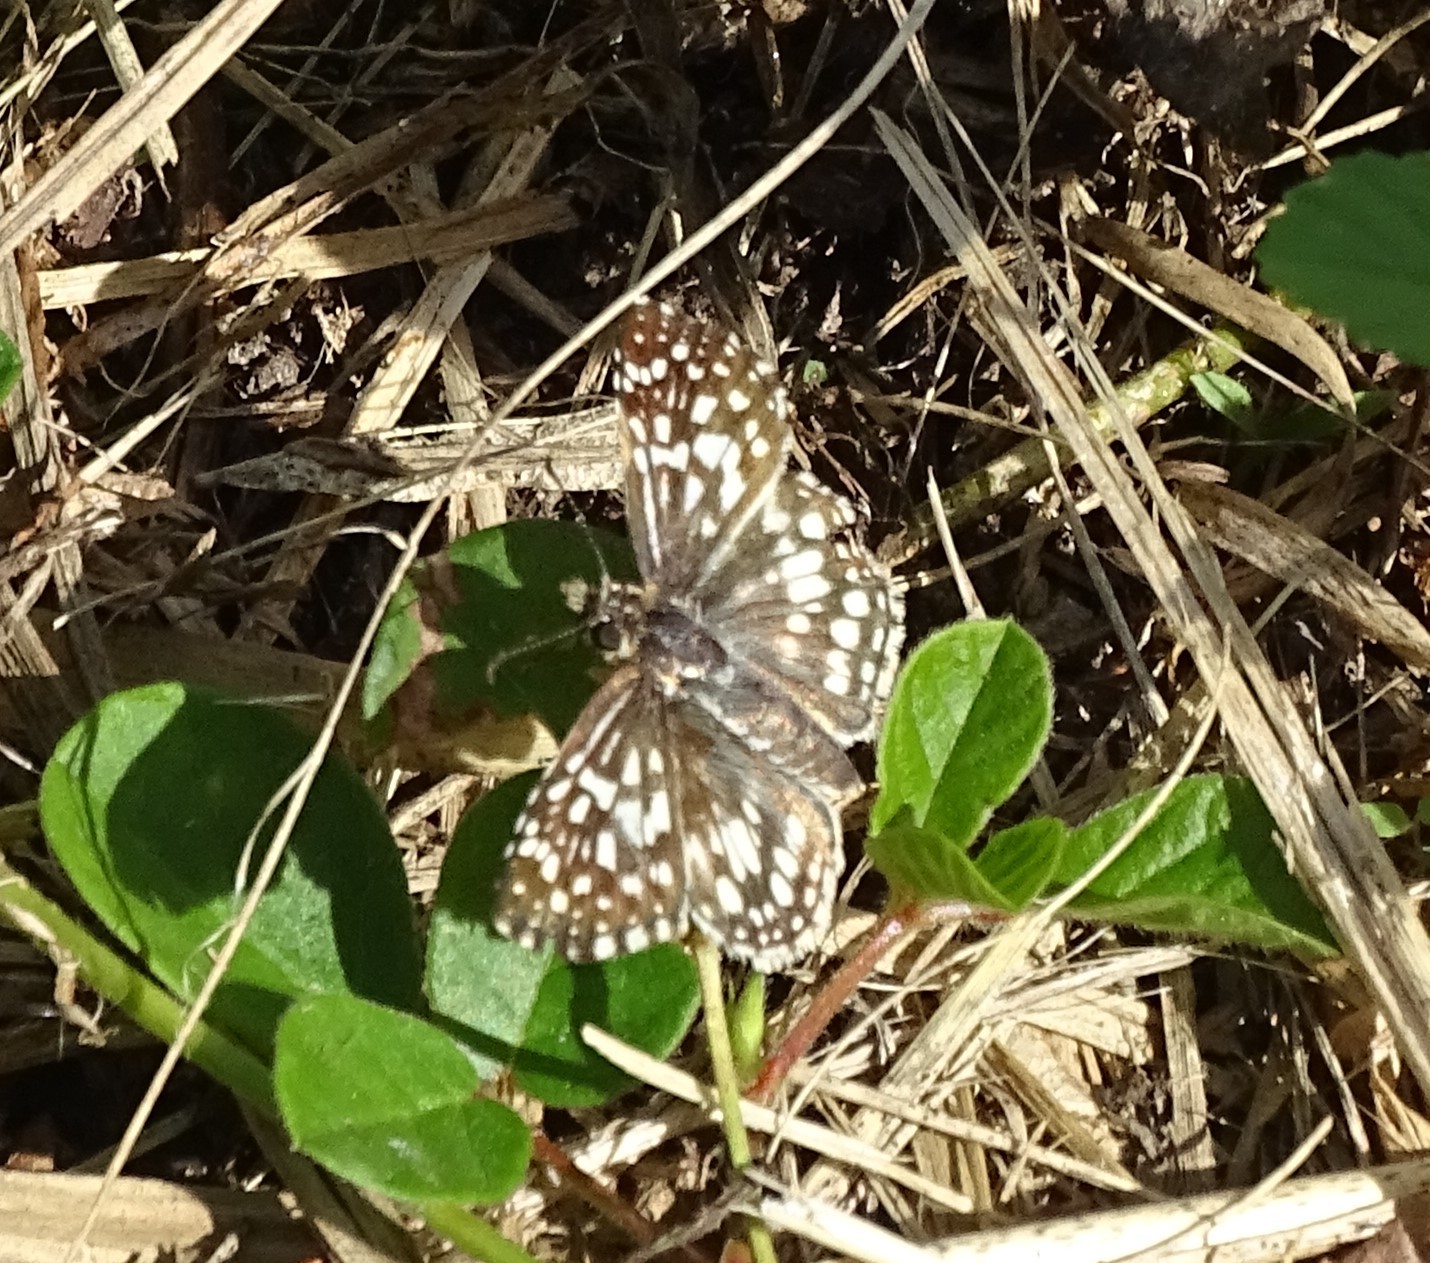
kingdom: Animalia
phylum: Arthropoda
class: Insecta
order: Lepidoptera
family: Hesperiidae
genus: Pyrgus
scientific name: Pyrgus oileus
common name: Tropical checkered-skipper
